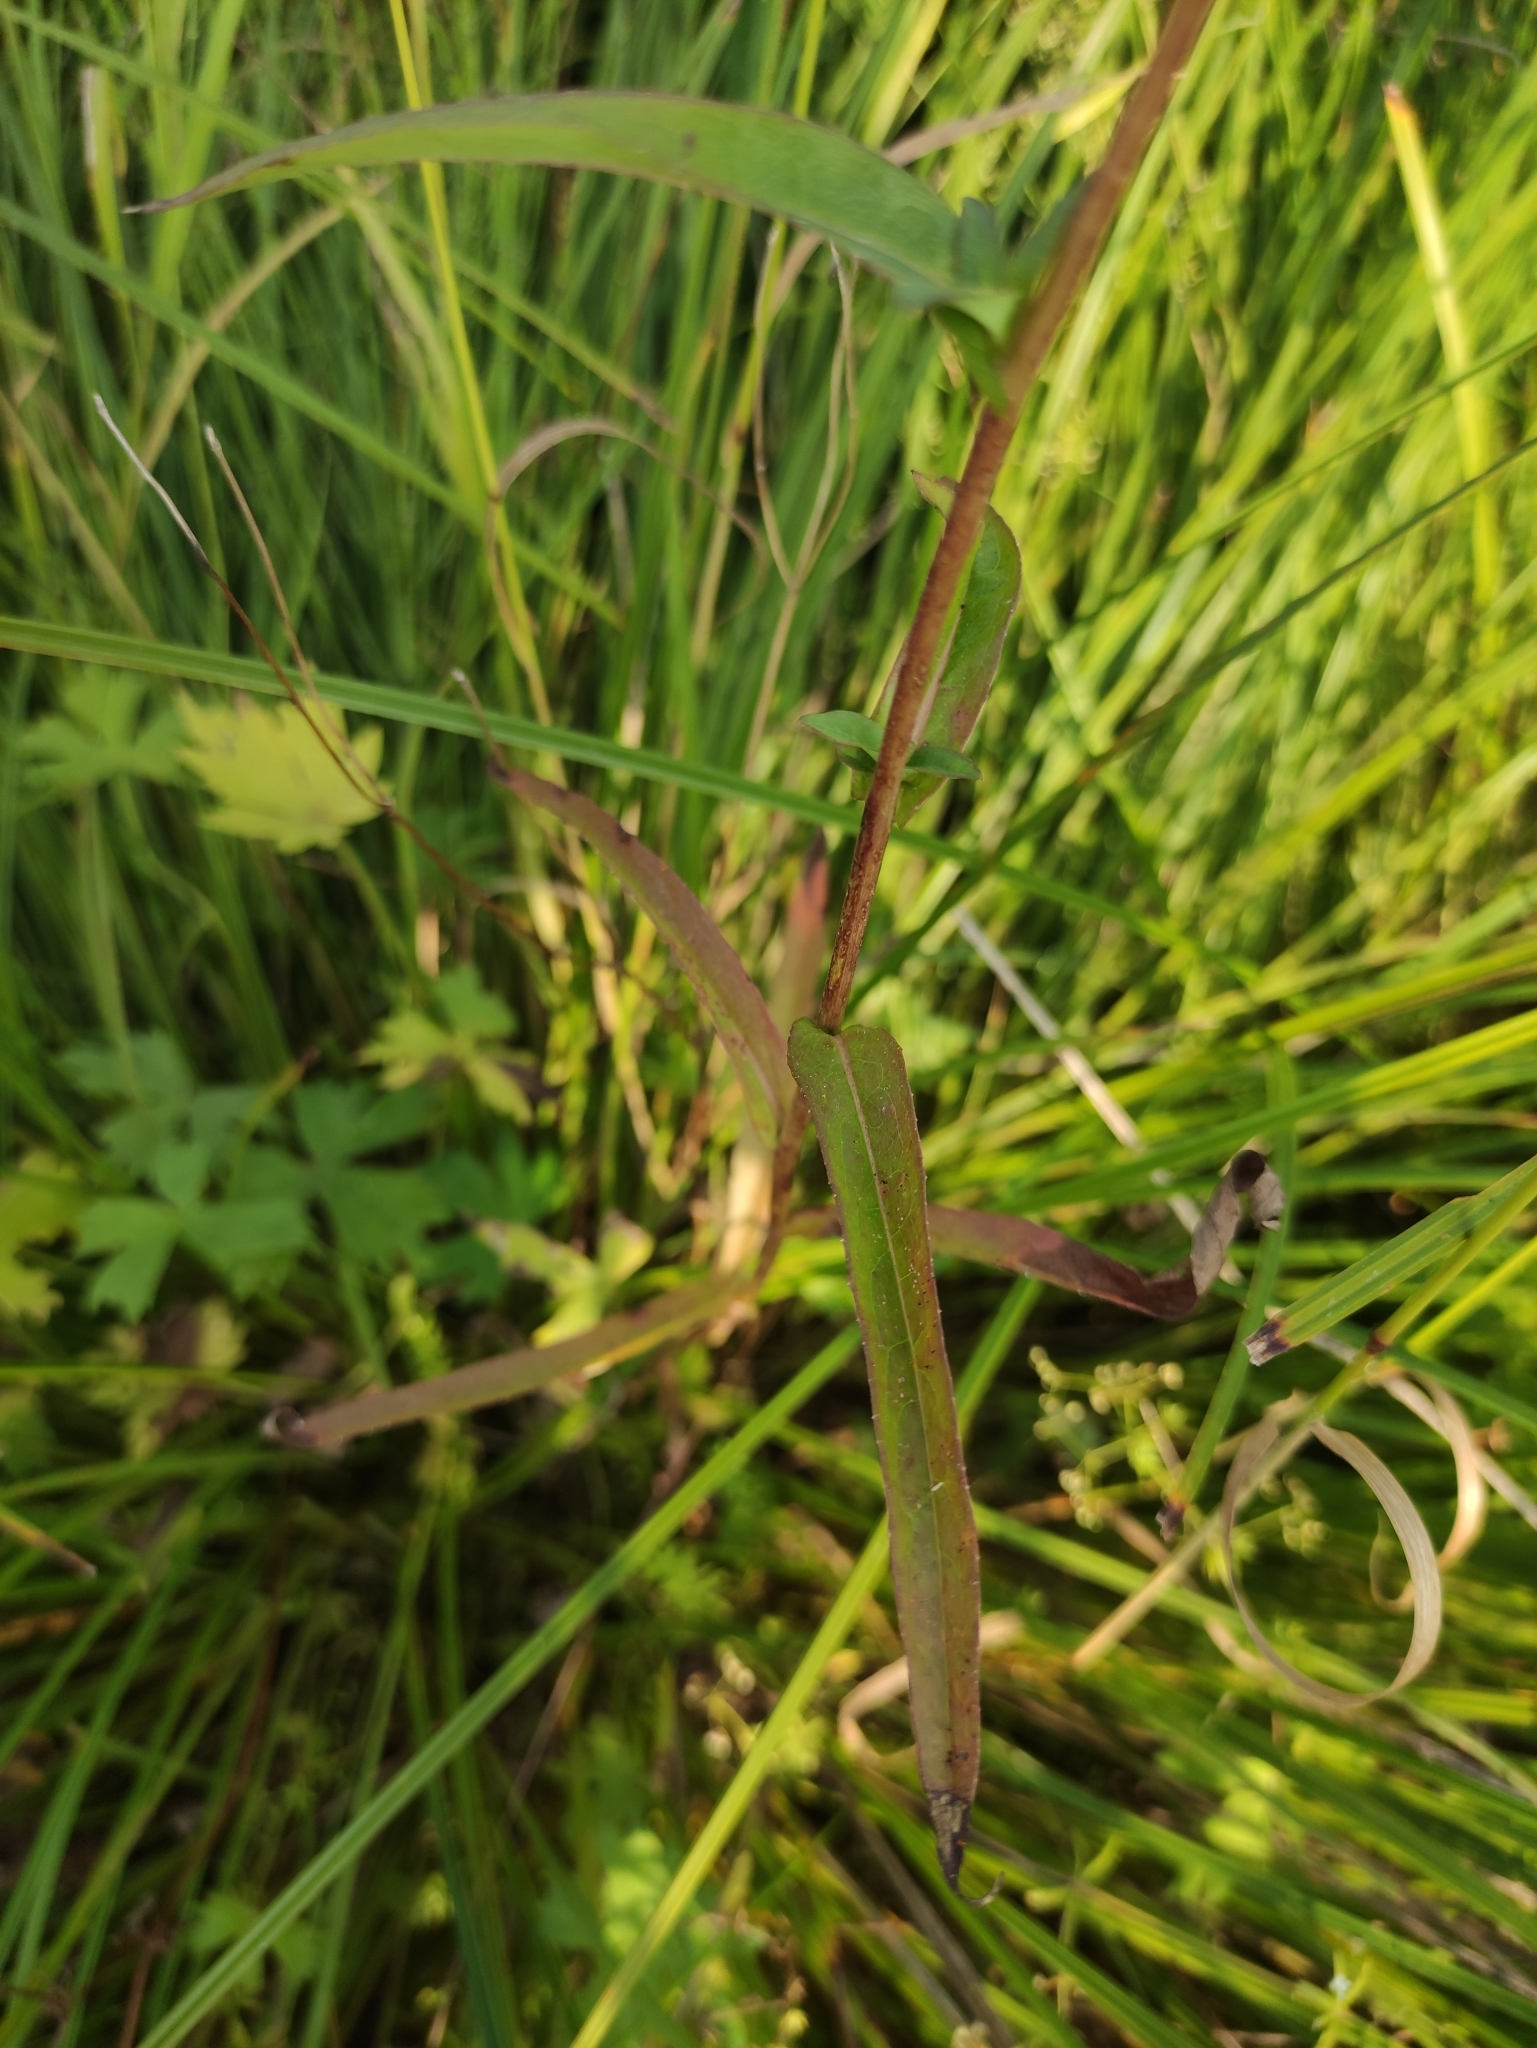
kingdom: Plantae
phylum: Tracheophyta
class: Magnoliopsida
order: Asterales
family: Asteraceae
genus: Lactuca
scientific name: Lactuca sibirica
